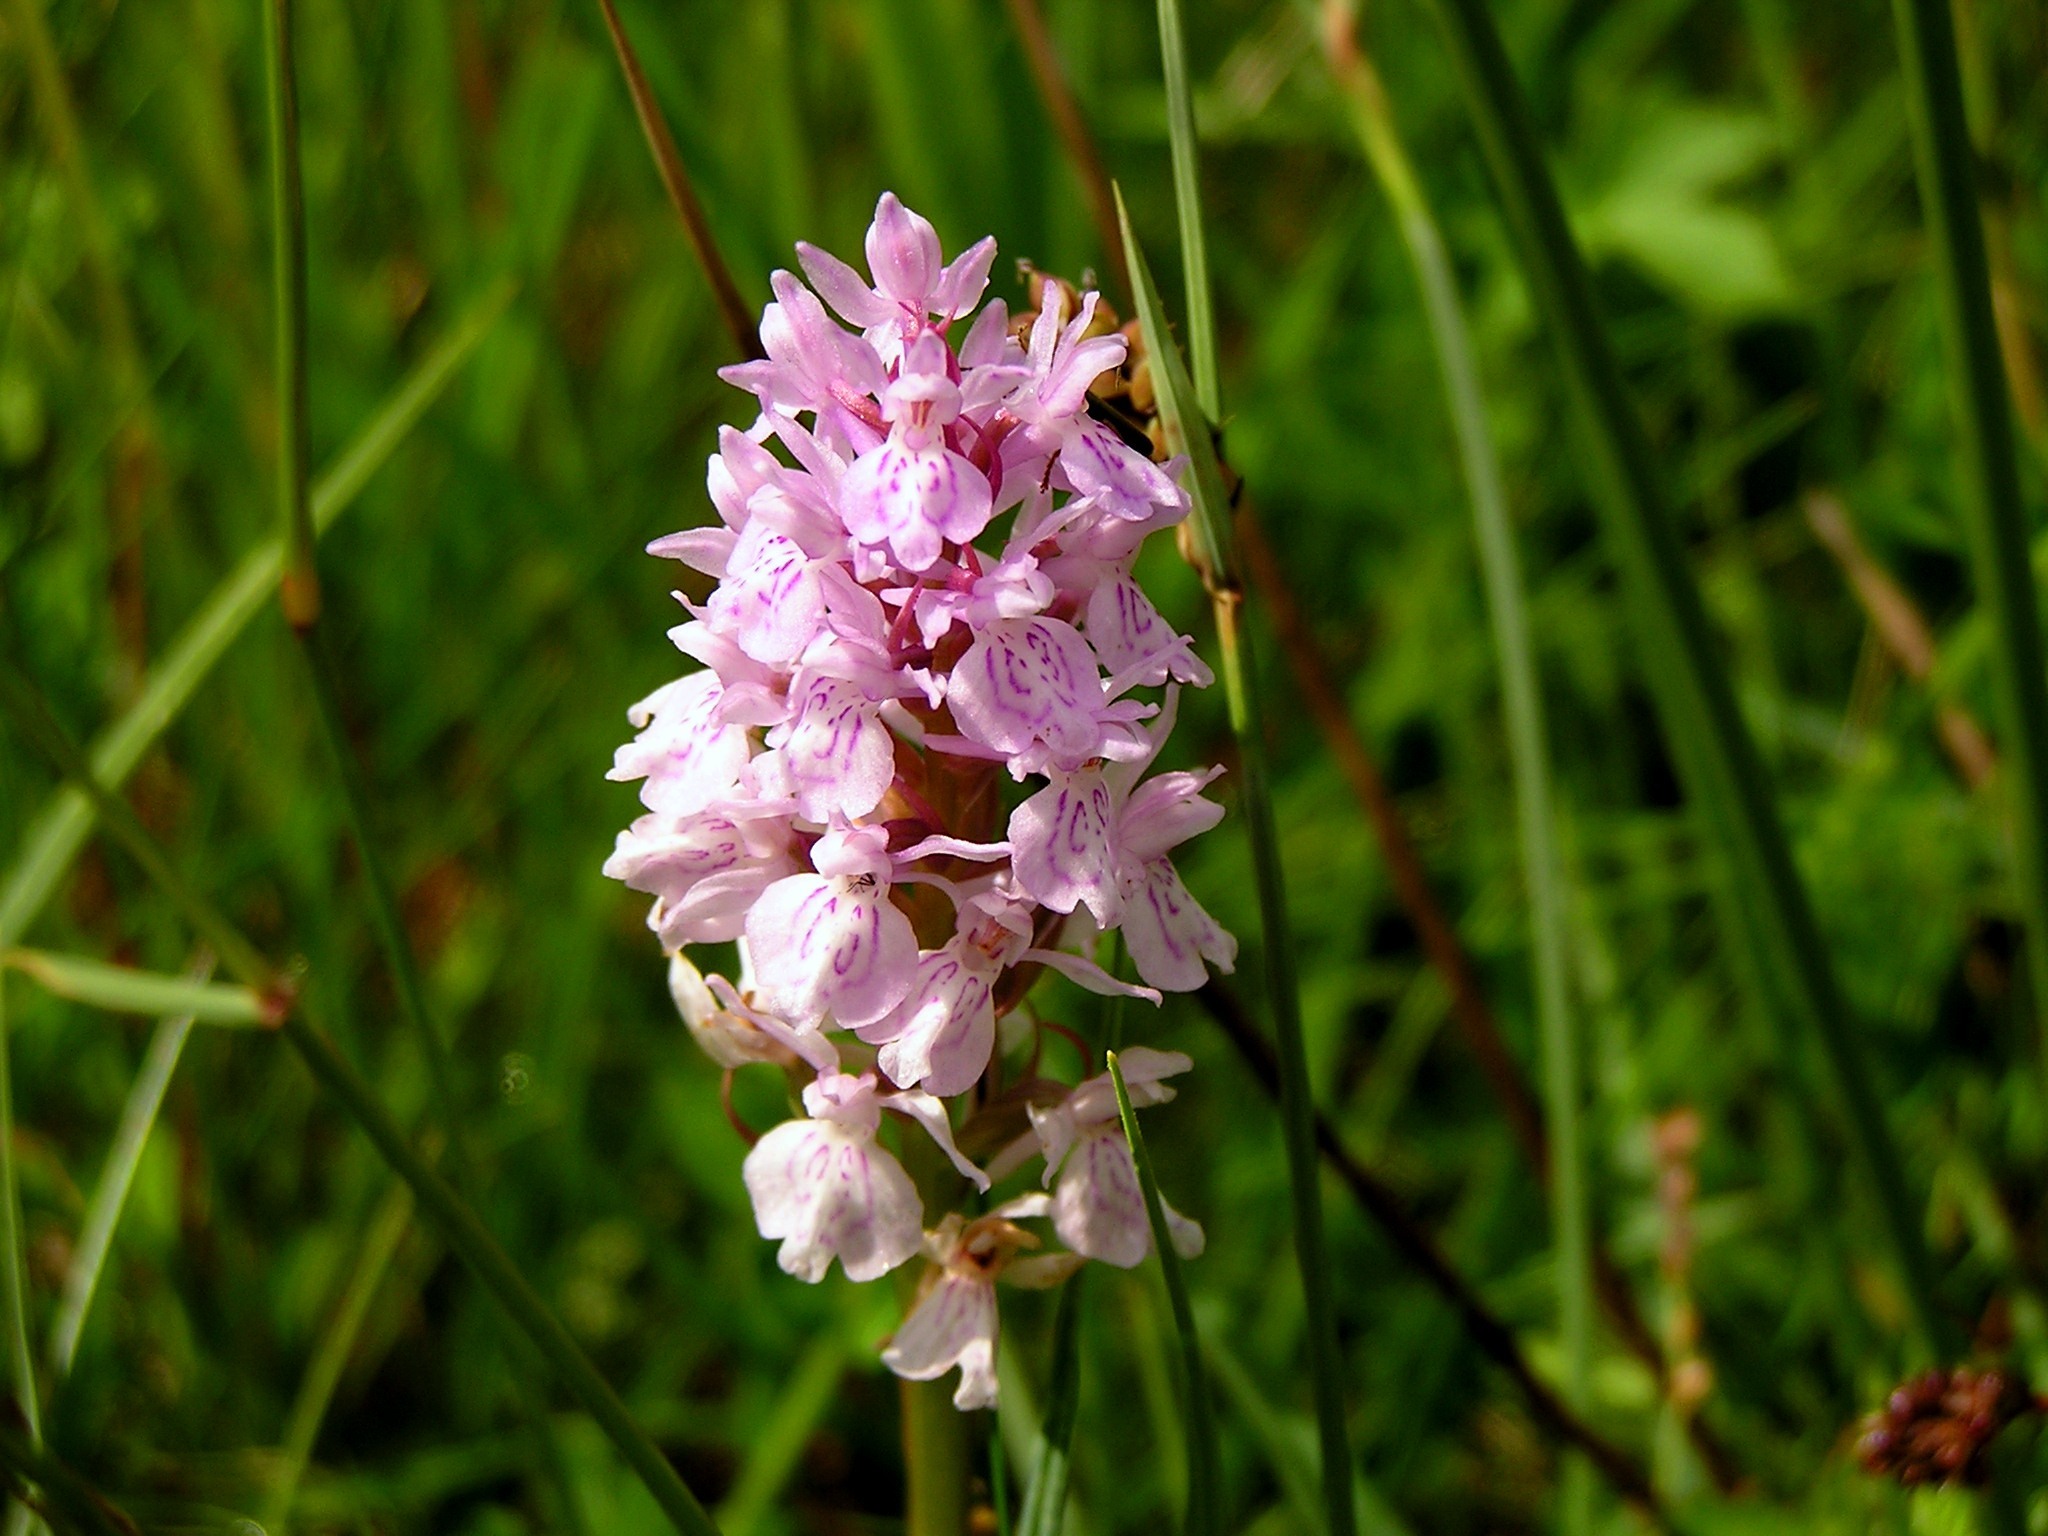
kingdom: Plantae
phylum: Tracheophyta
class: Liliopsida
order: Asparagales
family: Orchidaceae
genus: Dactylorhiza
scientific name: Dactylorhiza maculata
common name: Heath spotted-orchid
